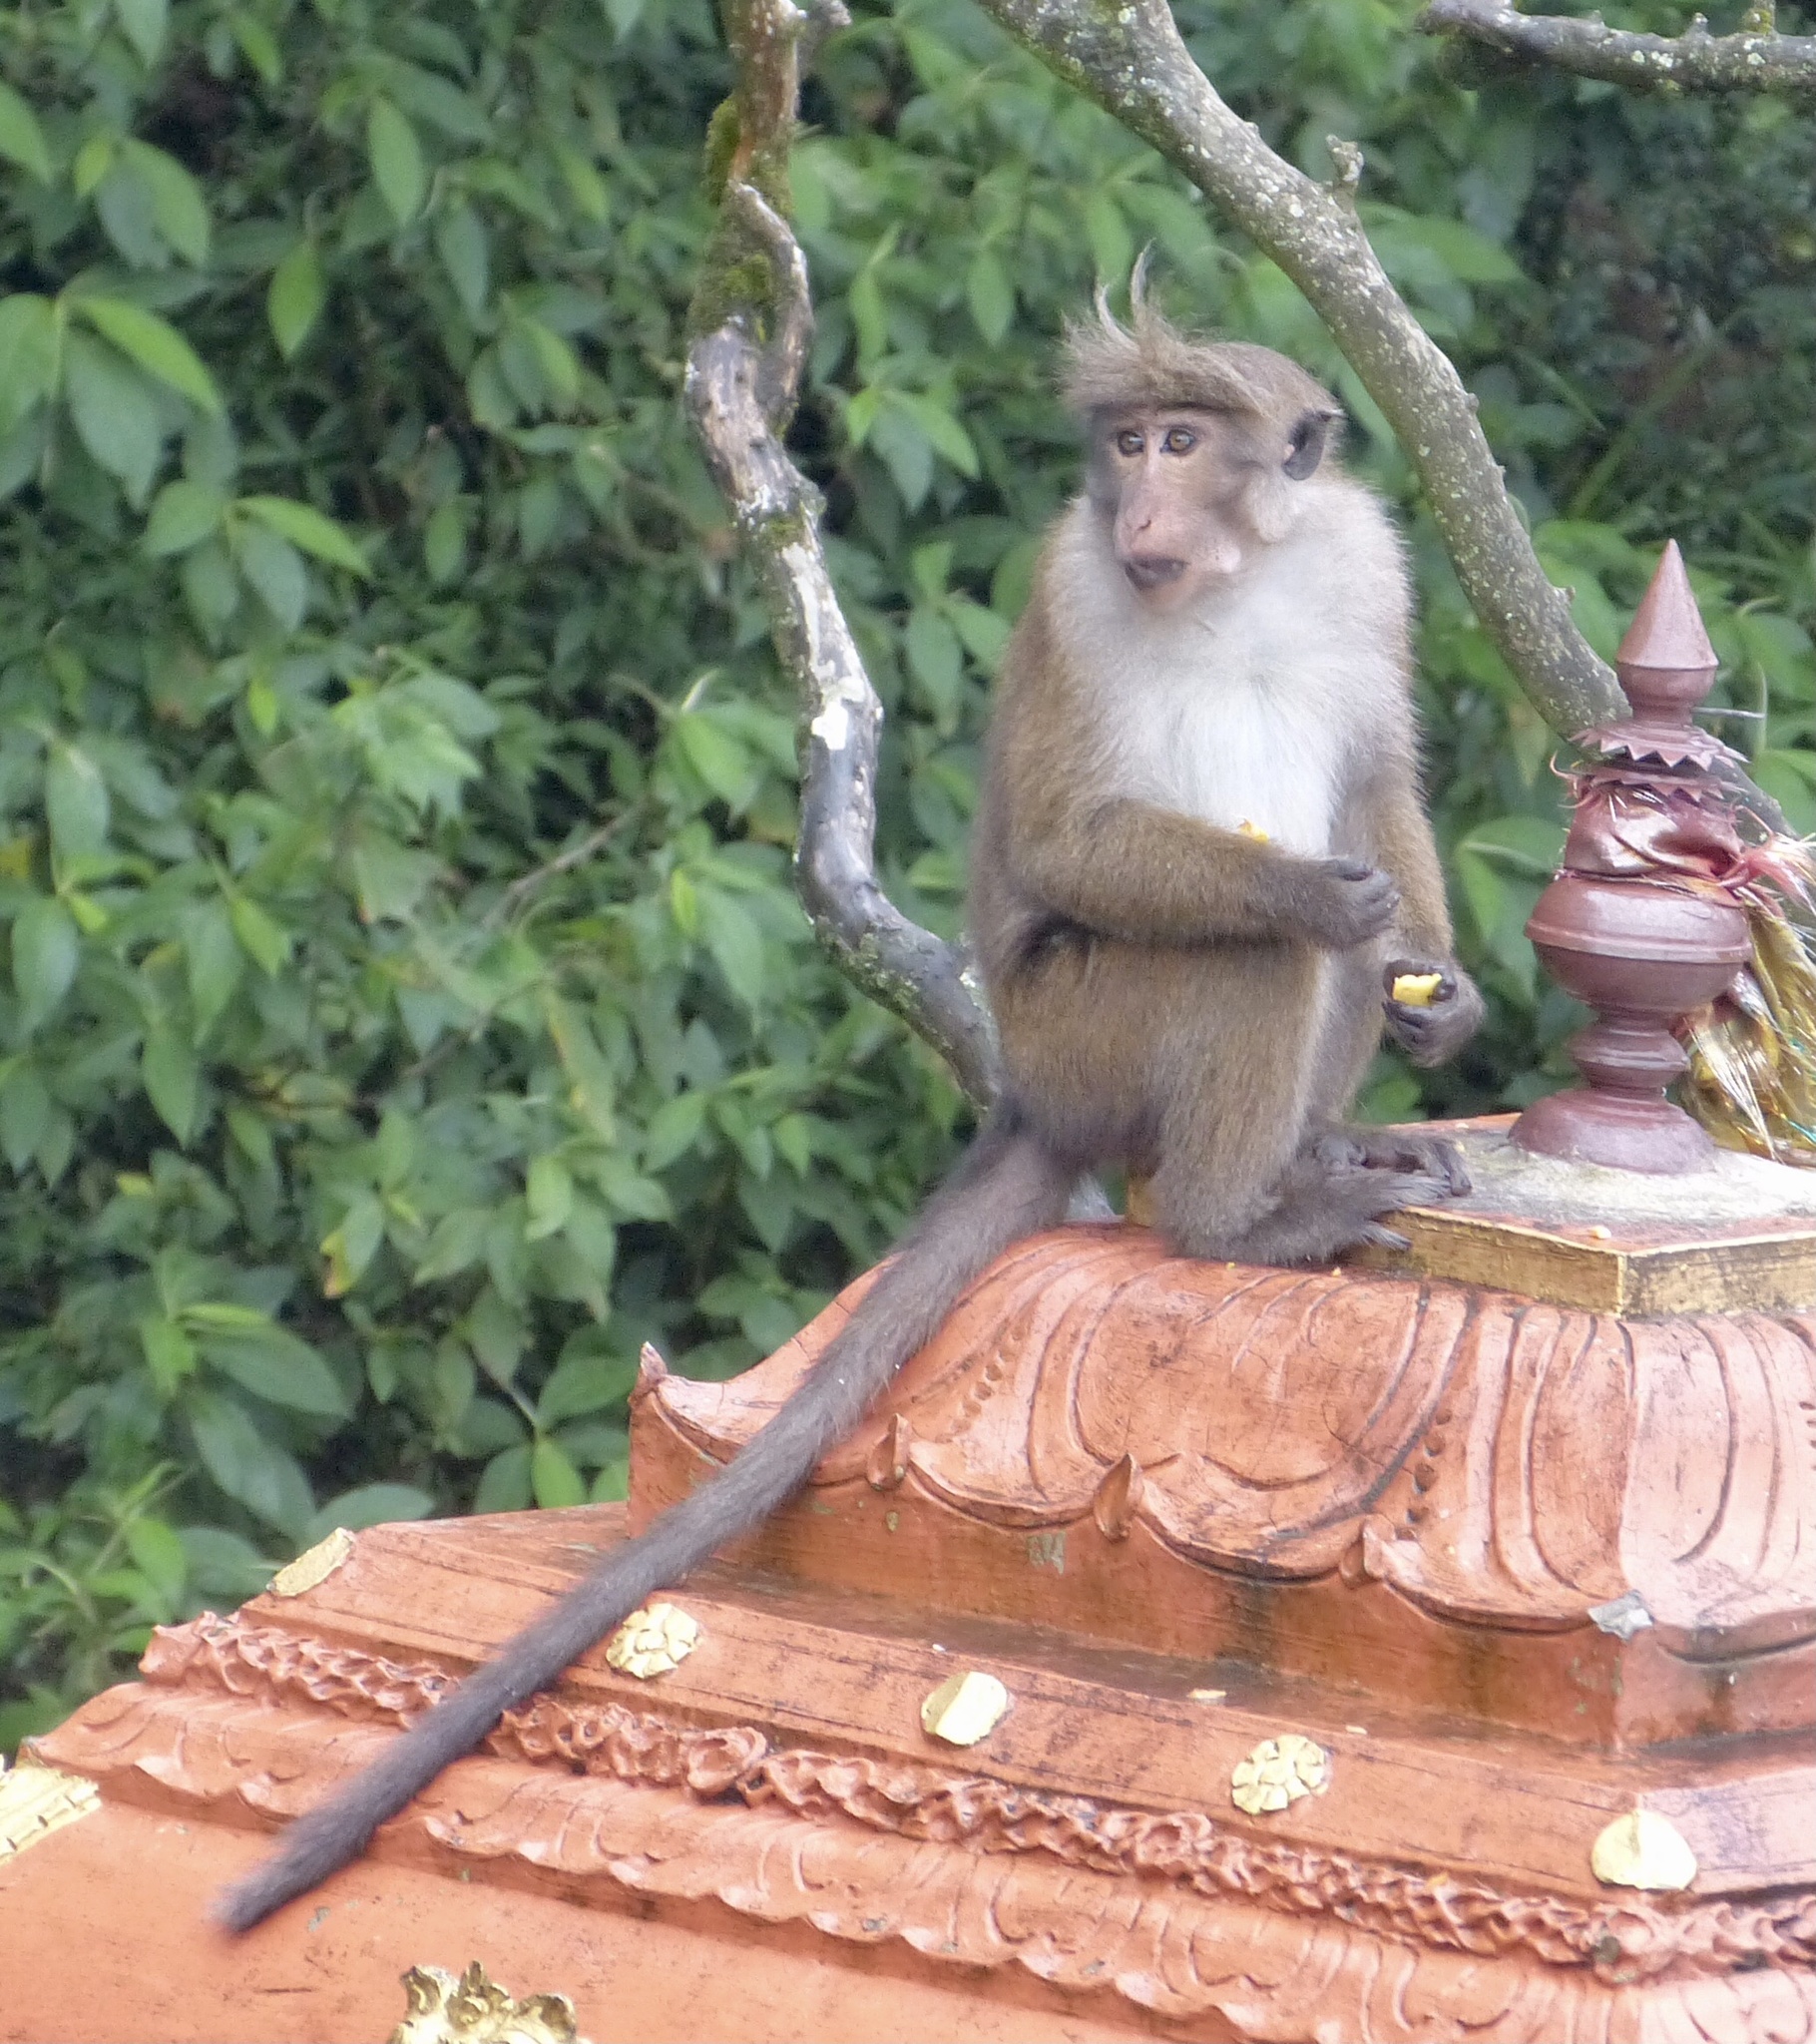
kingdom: Animalia
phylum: Chordata
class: Mammalia
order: Primates
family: Cercopithecidae
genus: Macaca
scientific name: Macaca sinica
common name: Toque macaque
